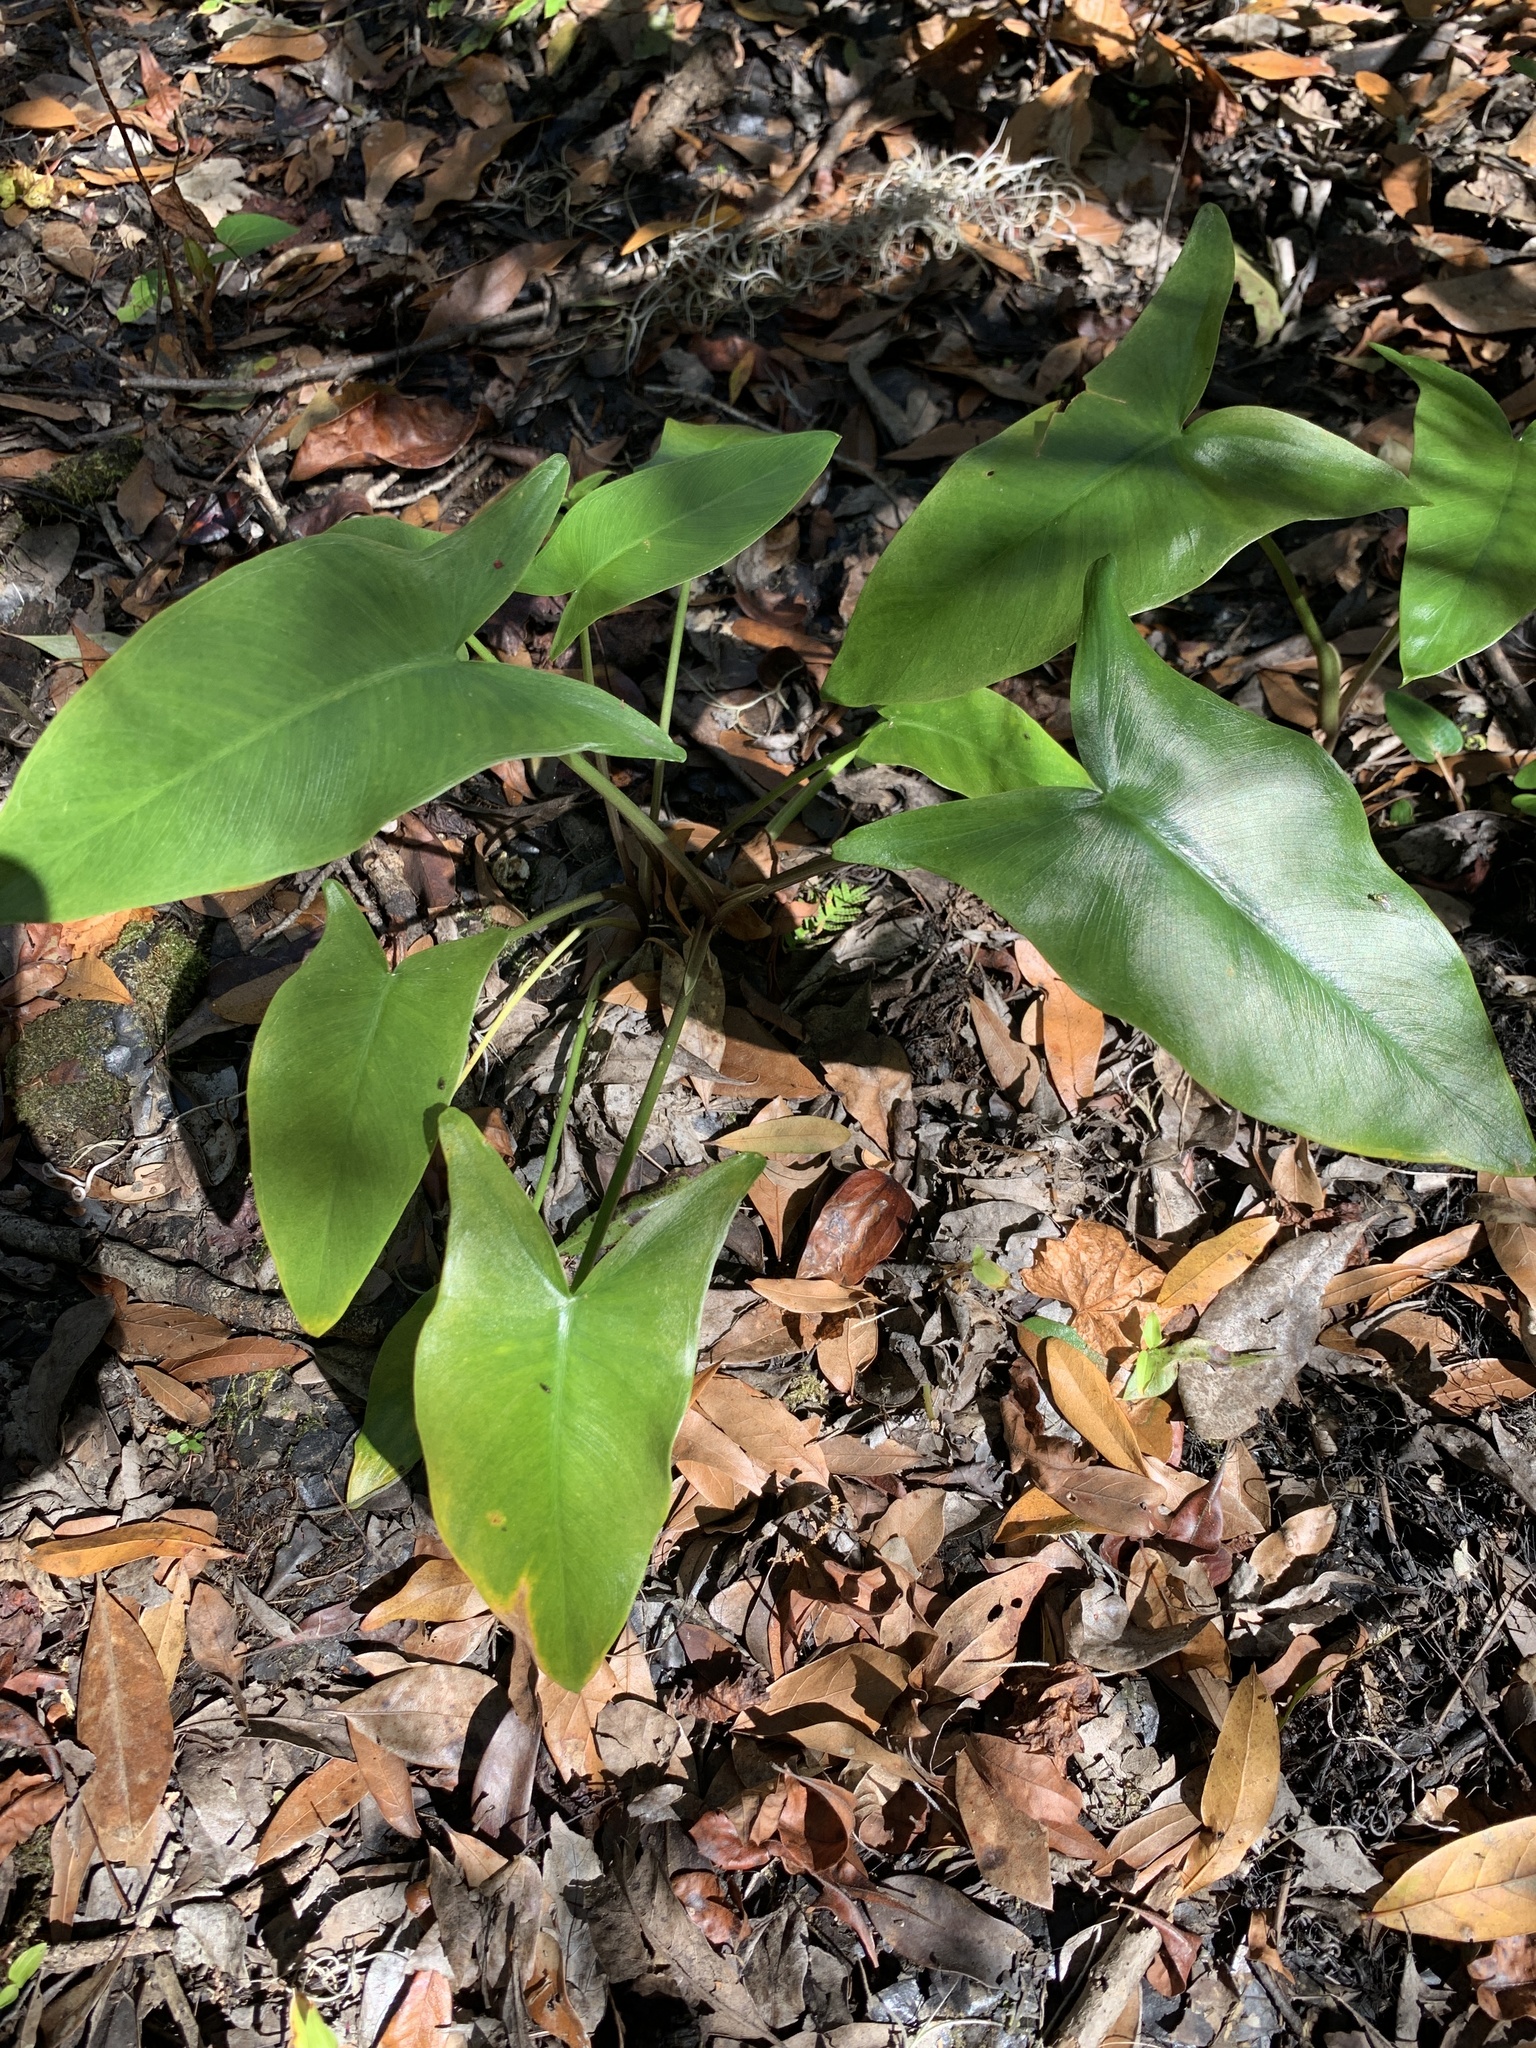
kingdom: Plantae
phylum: Tracheophyta
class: Liliopsida
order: Alismatales
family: Araceae
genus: Peltandra
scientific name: Peltandra virginica
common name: Arrow arum
